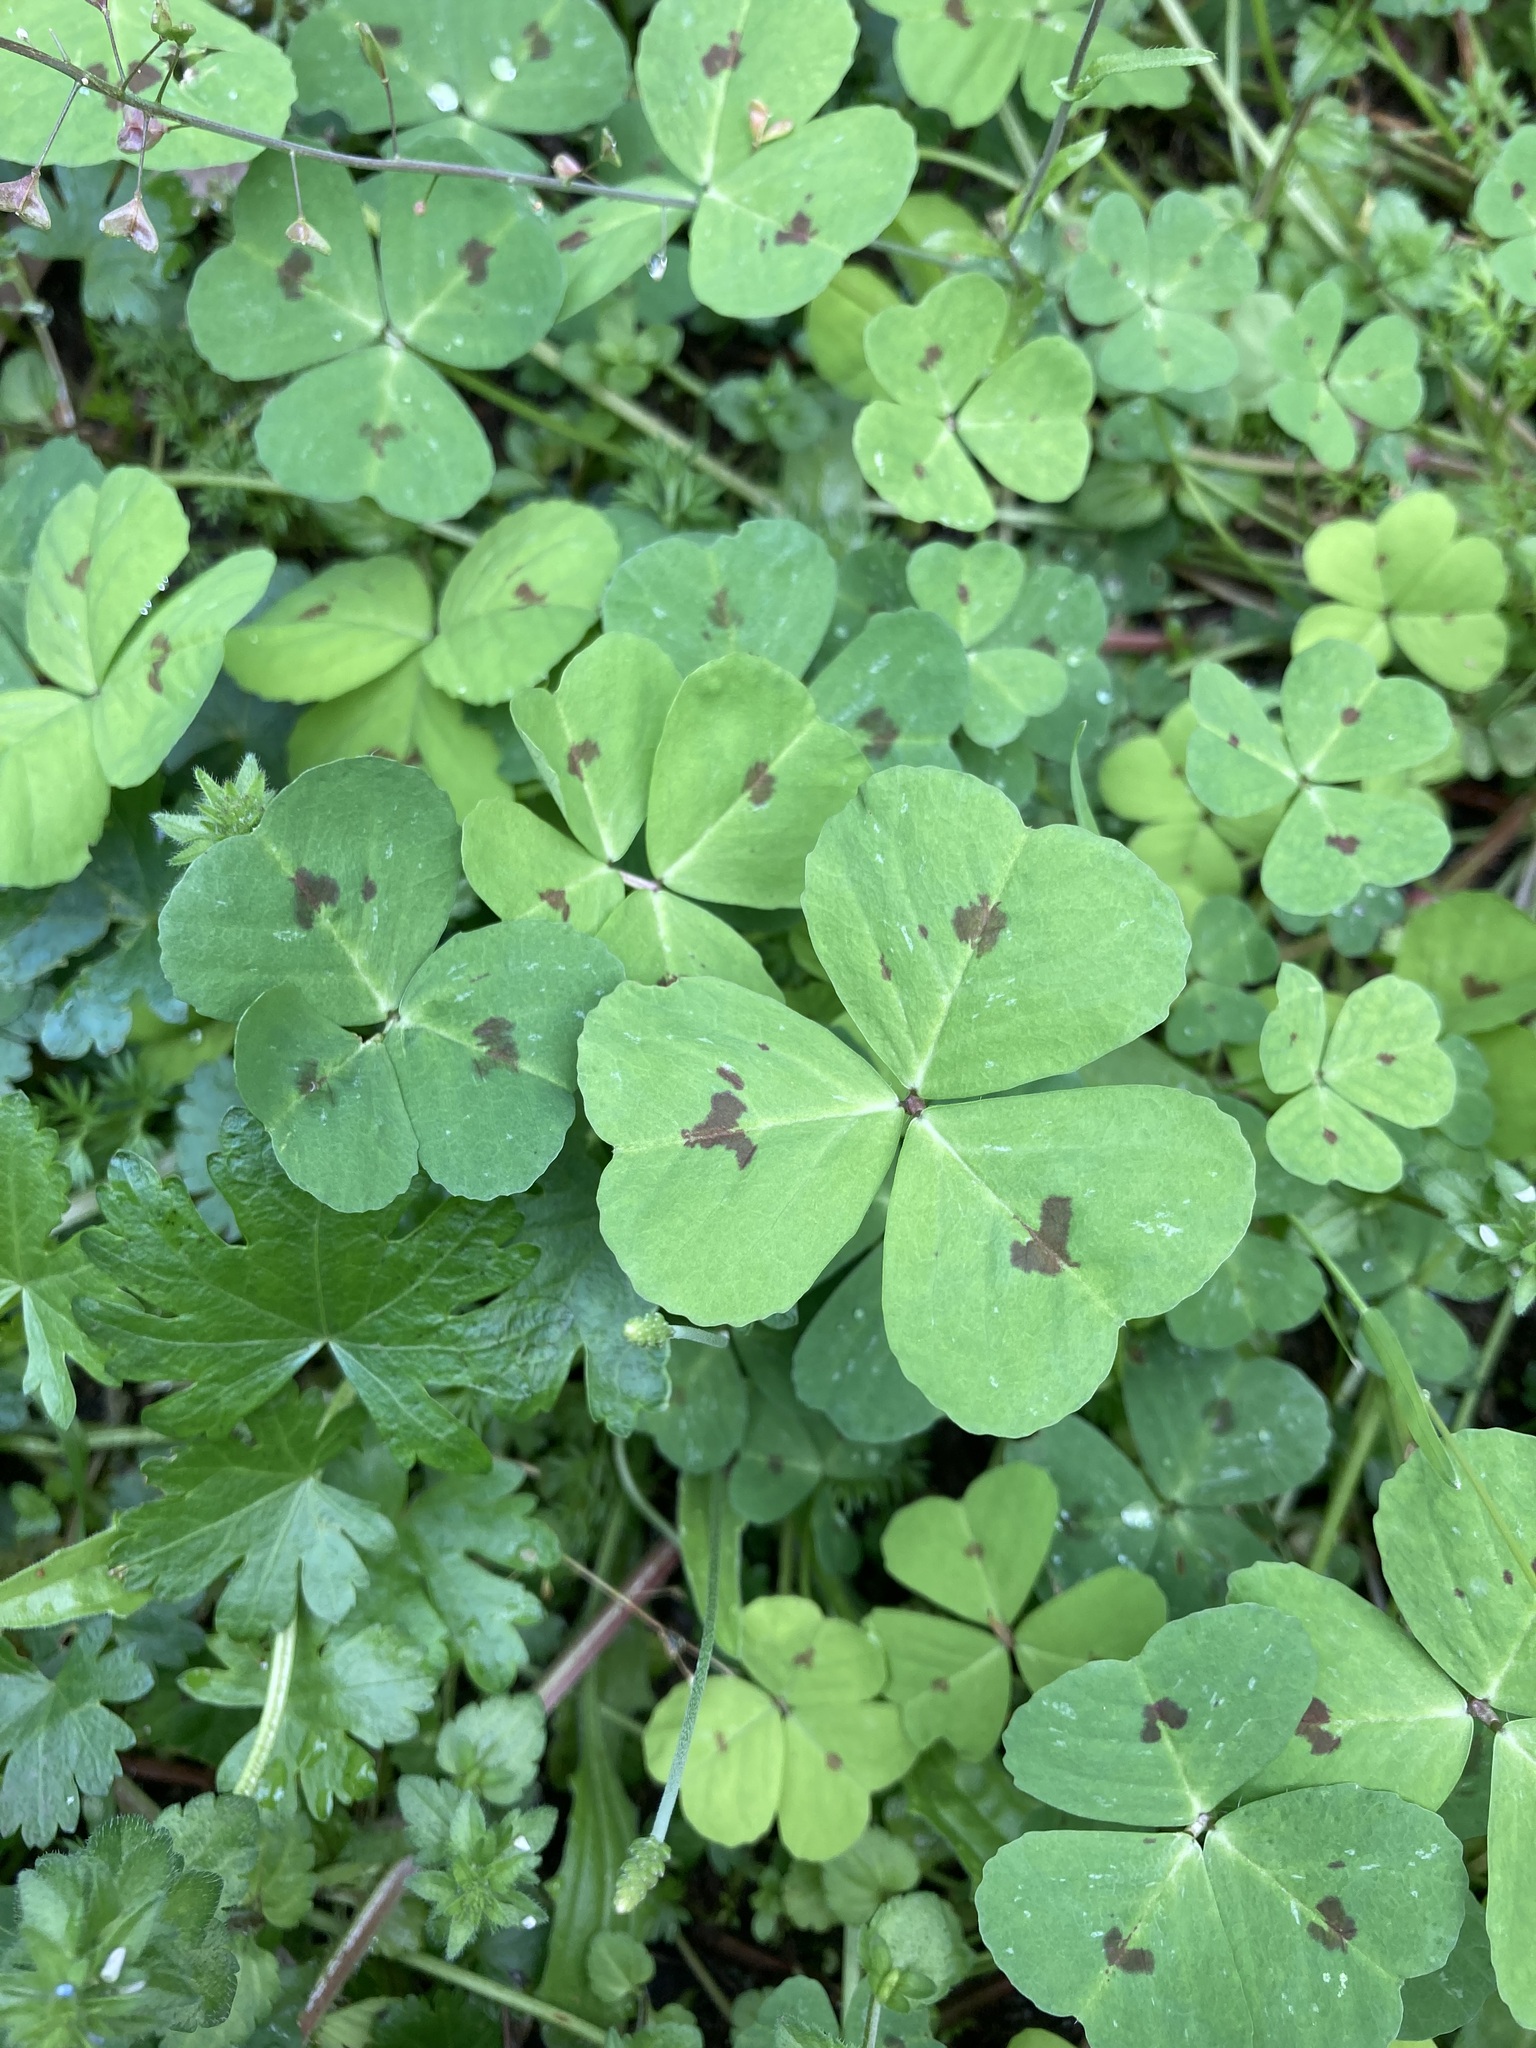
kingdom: Plantae
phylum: Tracheophyta
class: Magnoliopsida
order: Fabales
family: Fabaceae
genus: Medicago
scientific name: Medicago arabica
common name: Spotted medick
